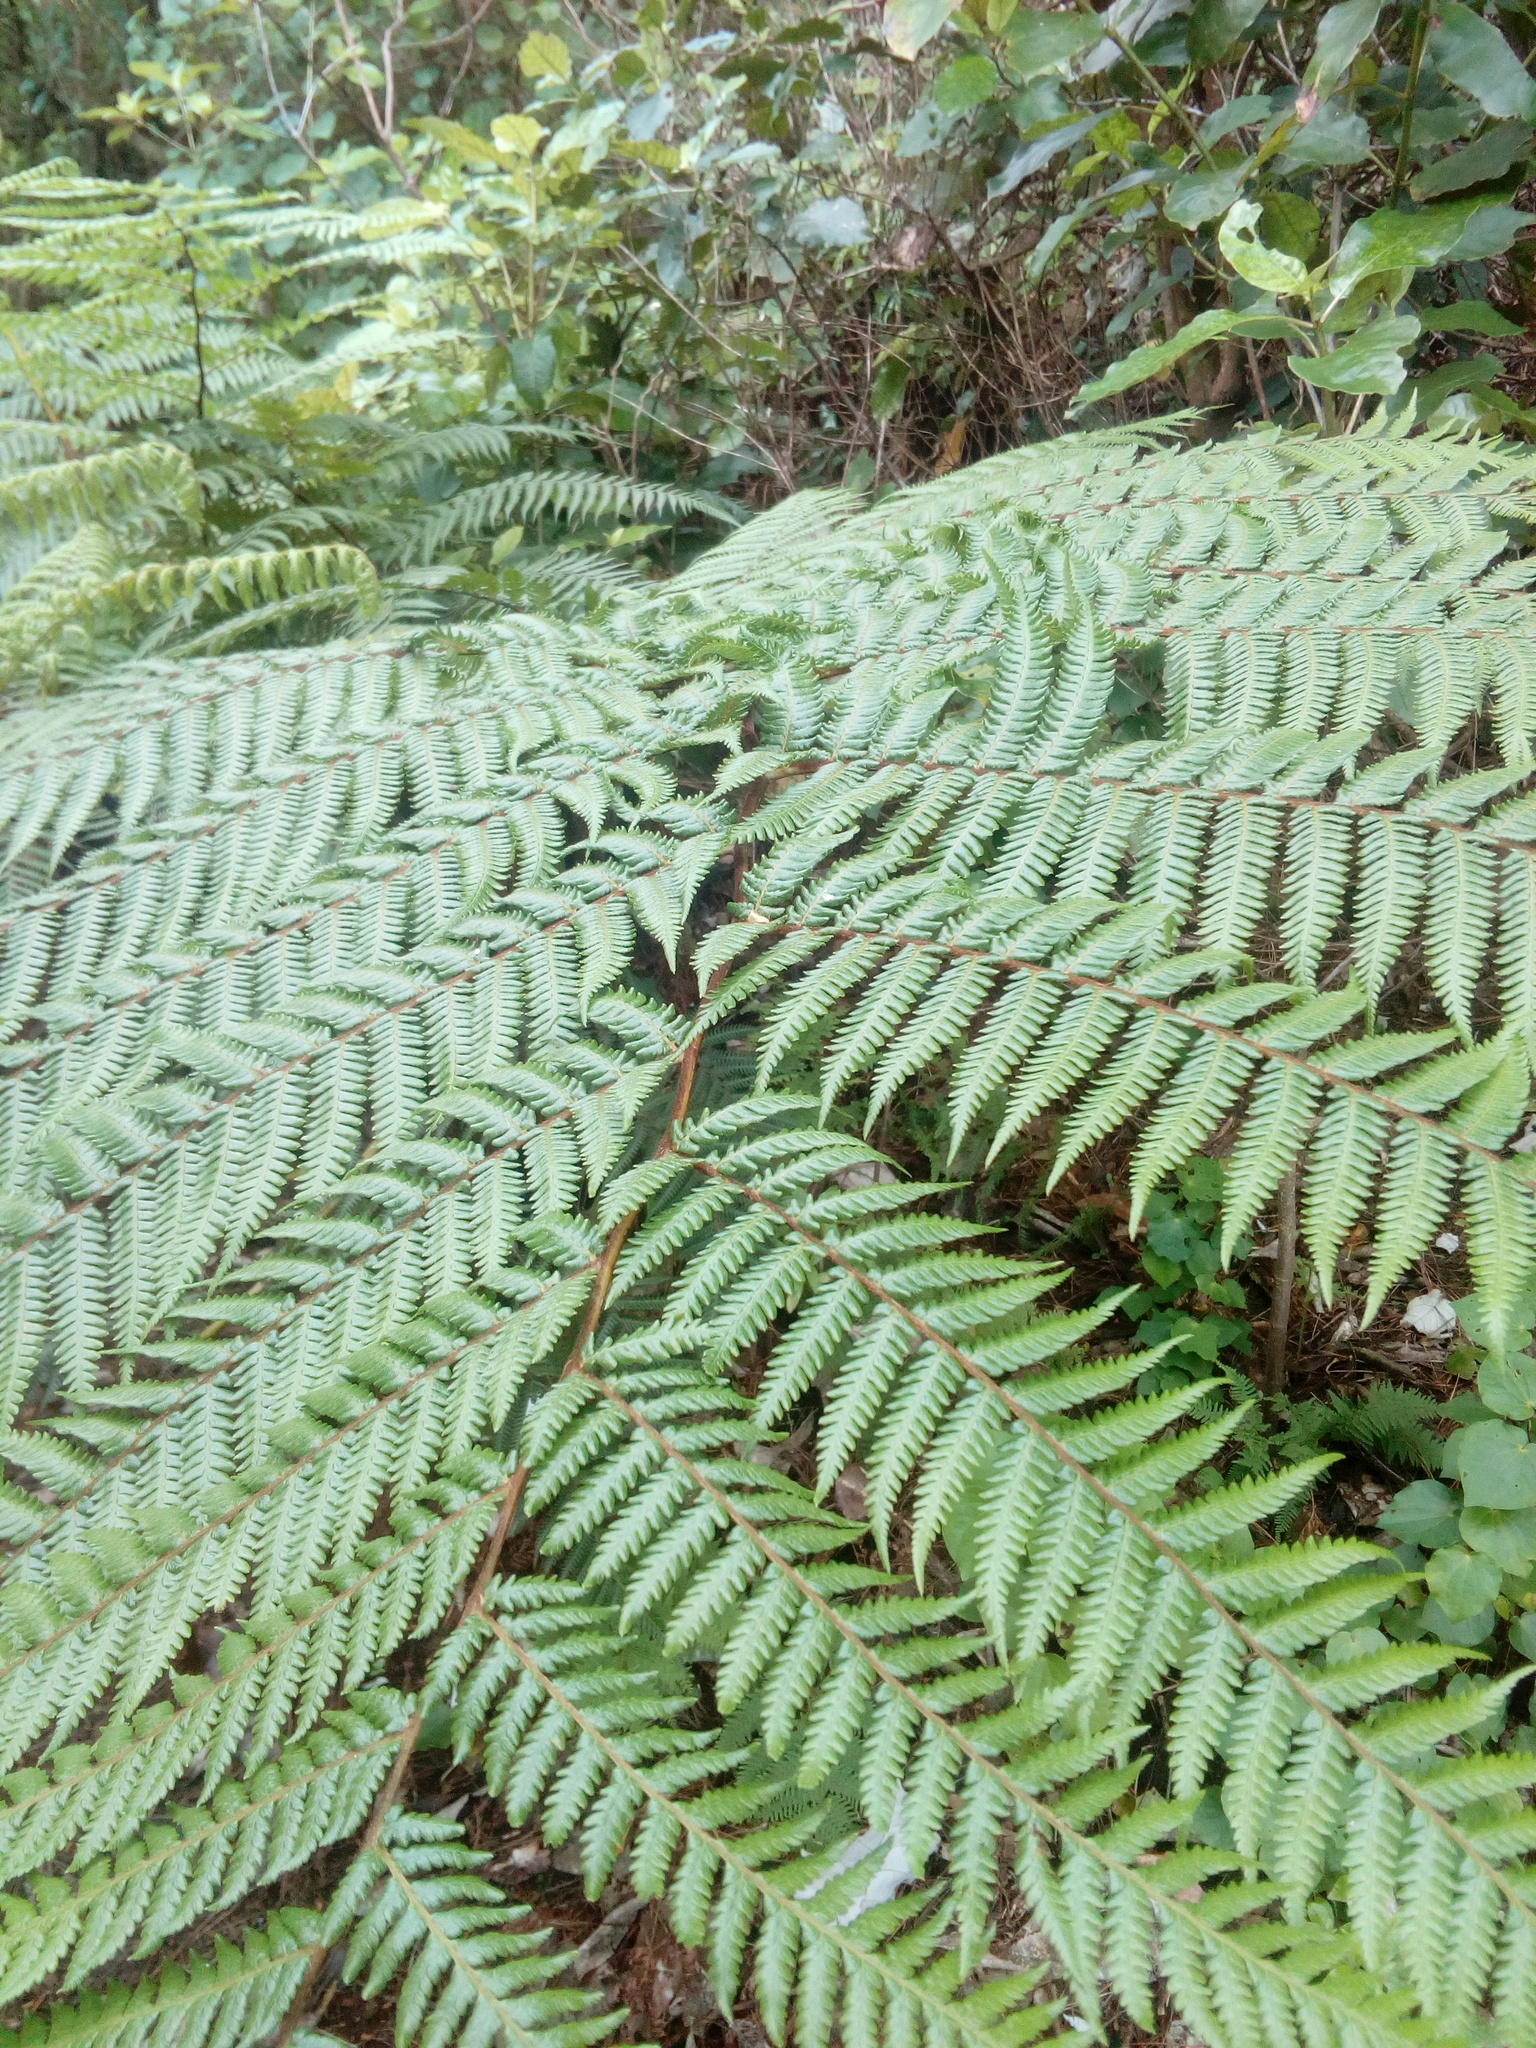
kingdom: Plantae
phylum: Tracheophyta
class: Polypodiopsida
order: Cyatheales
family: Cyatheaceae
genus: Sphaeropteris
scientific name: Sphaeropteris medullaris
